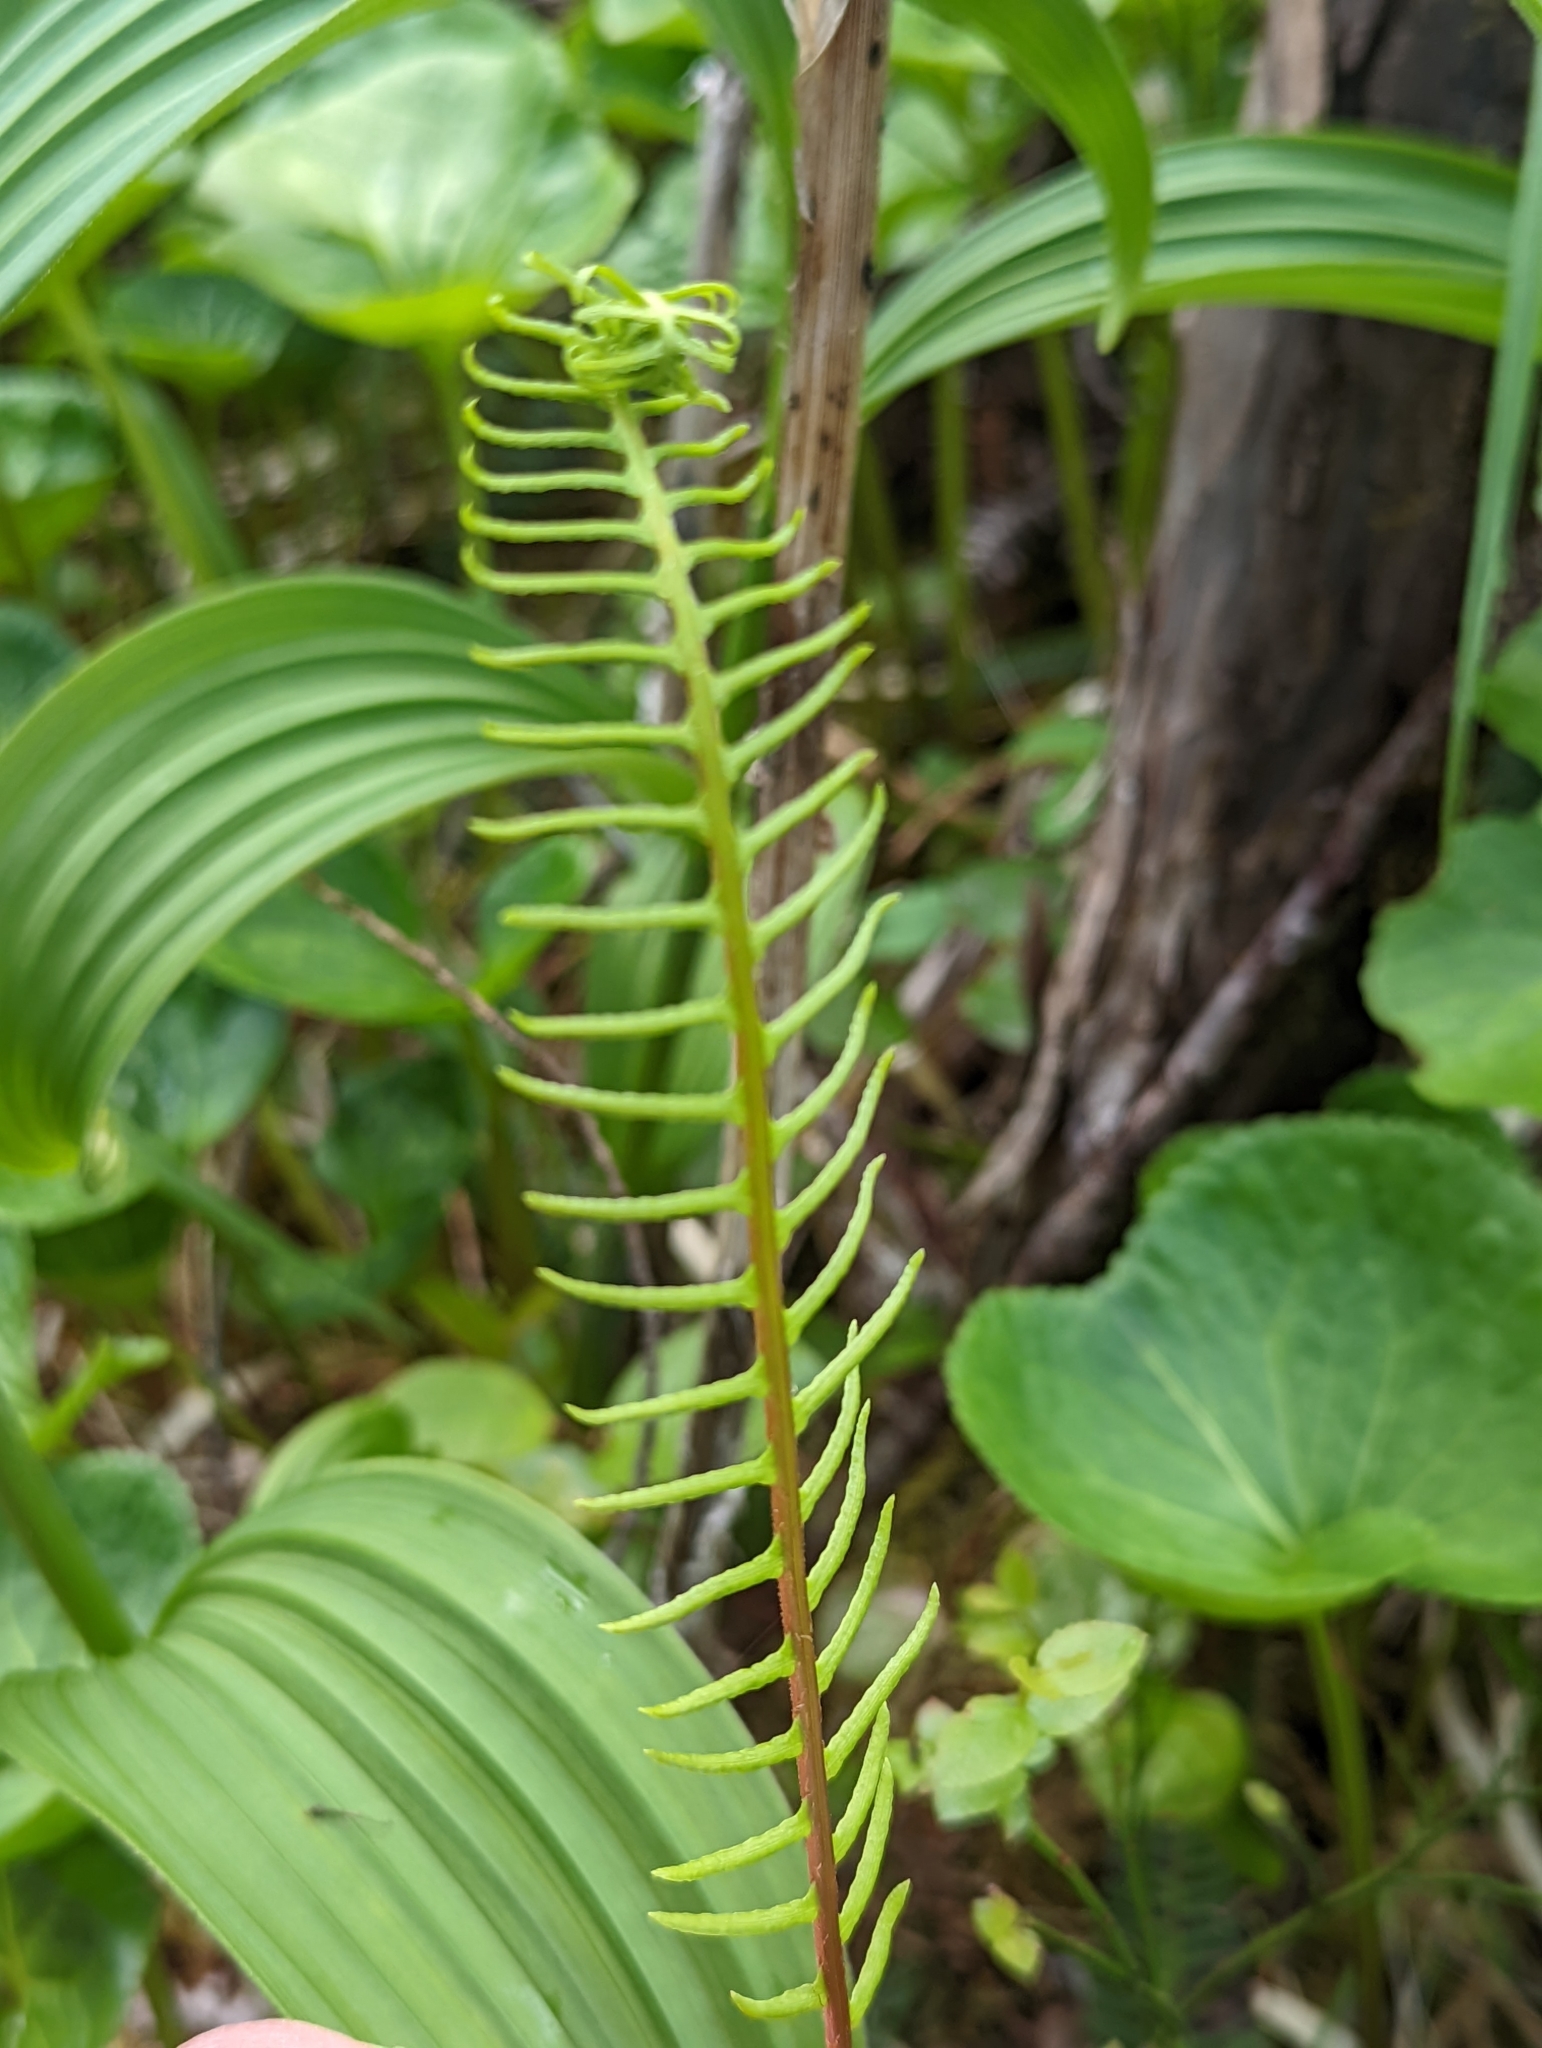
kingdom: Plantae
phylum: Tracheophyta
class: Polypodiopsida
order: Polypodiales
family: Blechnaceae
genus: Struthiopteris
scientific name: Struthiopteris spicant
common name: Deer fern
